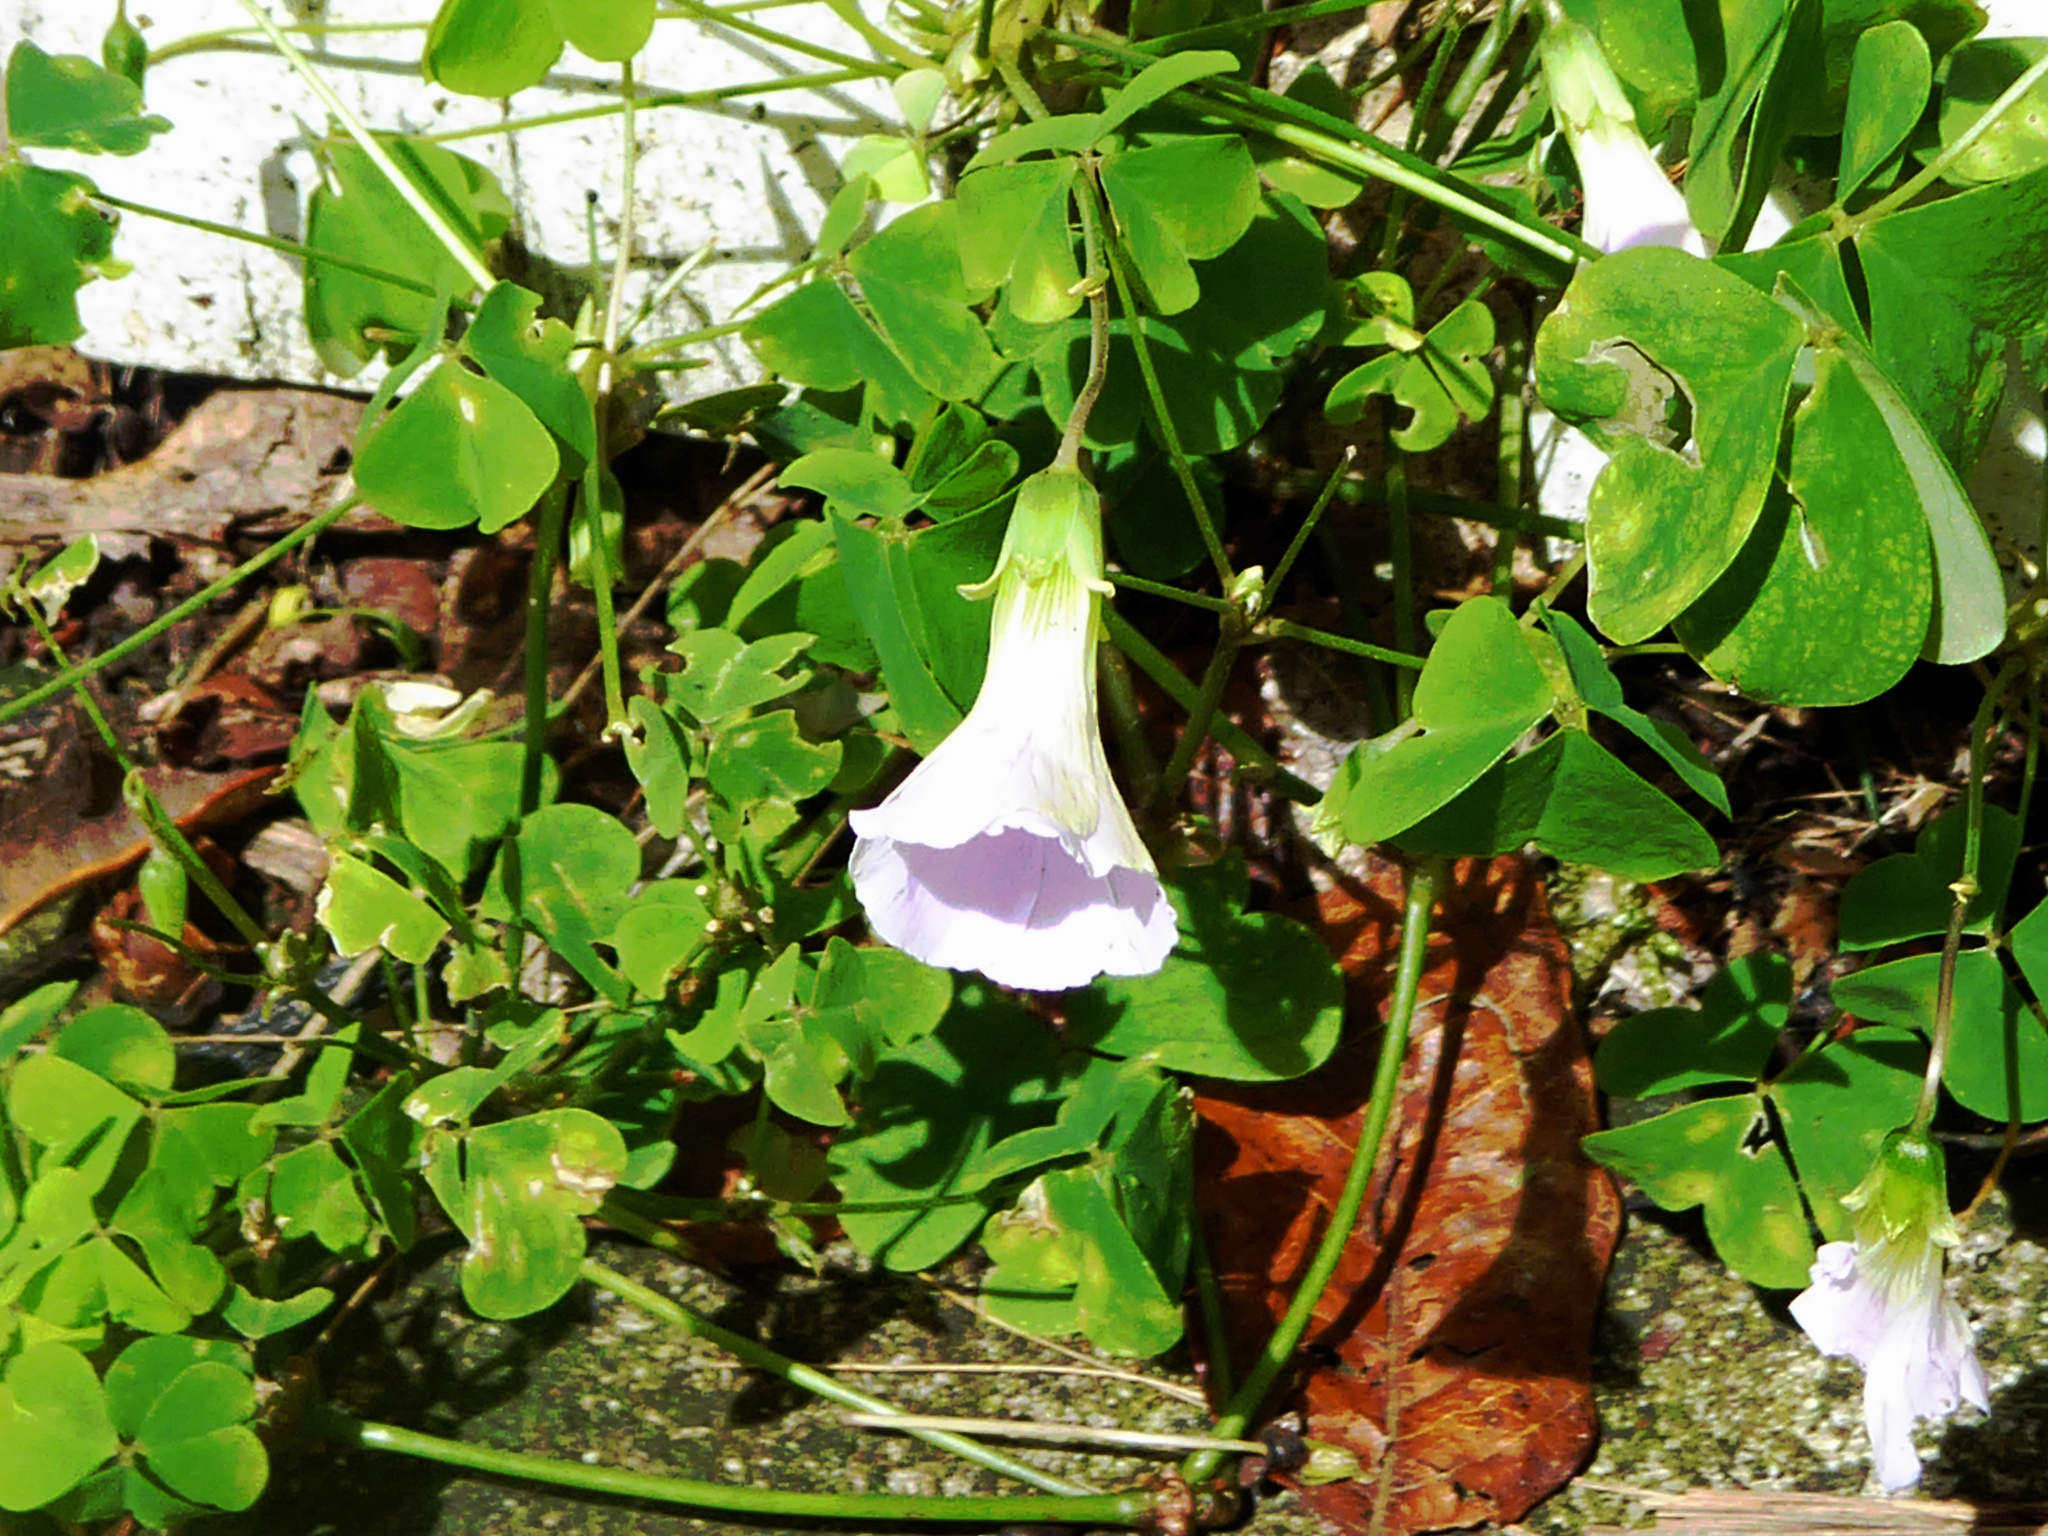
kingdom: Plantae
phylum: Tracheophyta
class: Magnoliopsida
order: Oxalidales
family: Oxalidaceae
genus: Oxalis
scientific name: Oxalis incarnata
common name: Pale pink-sorrel
